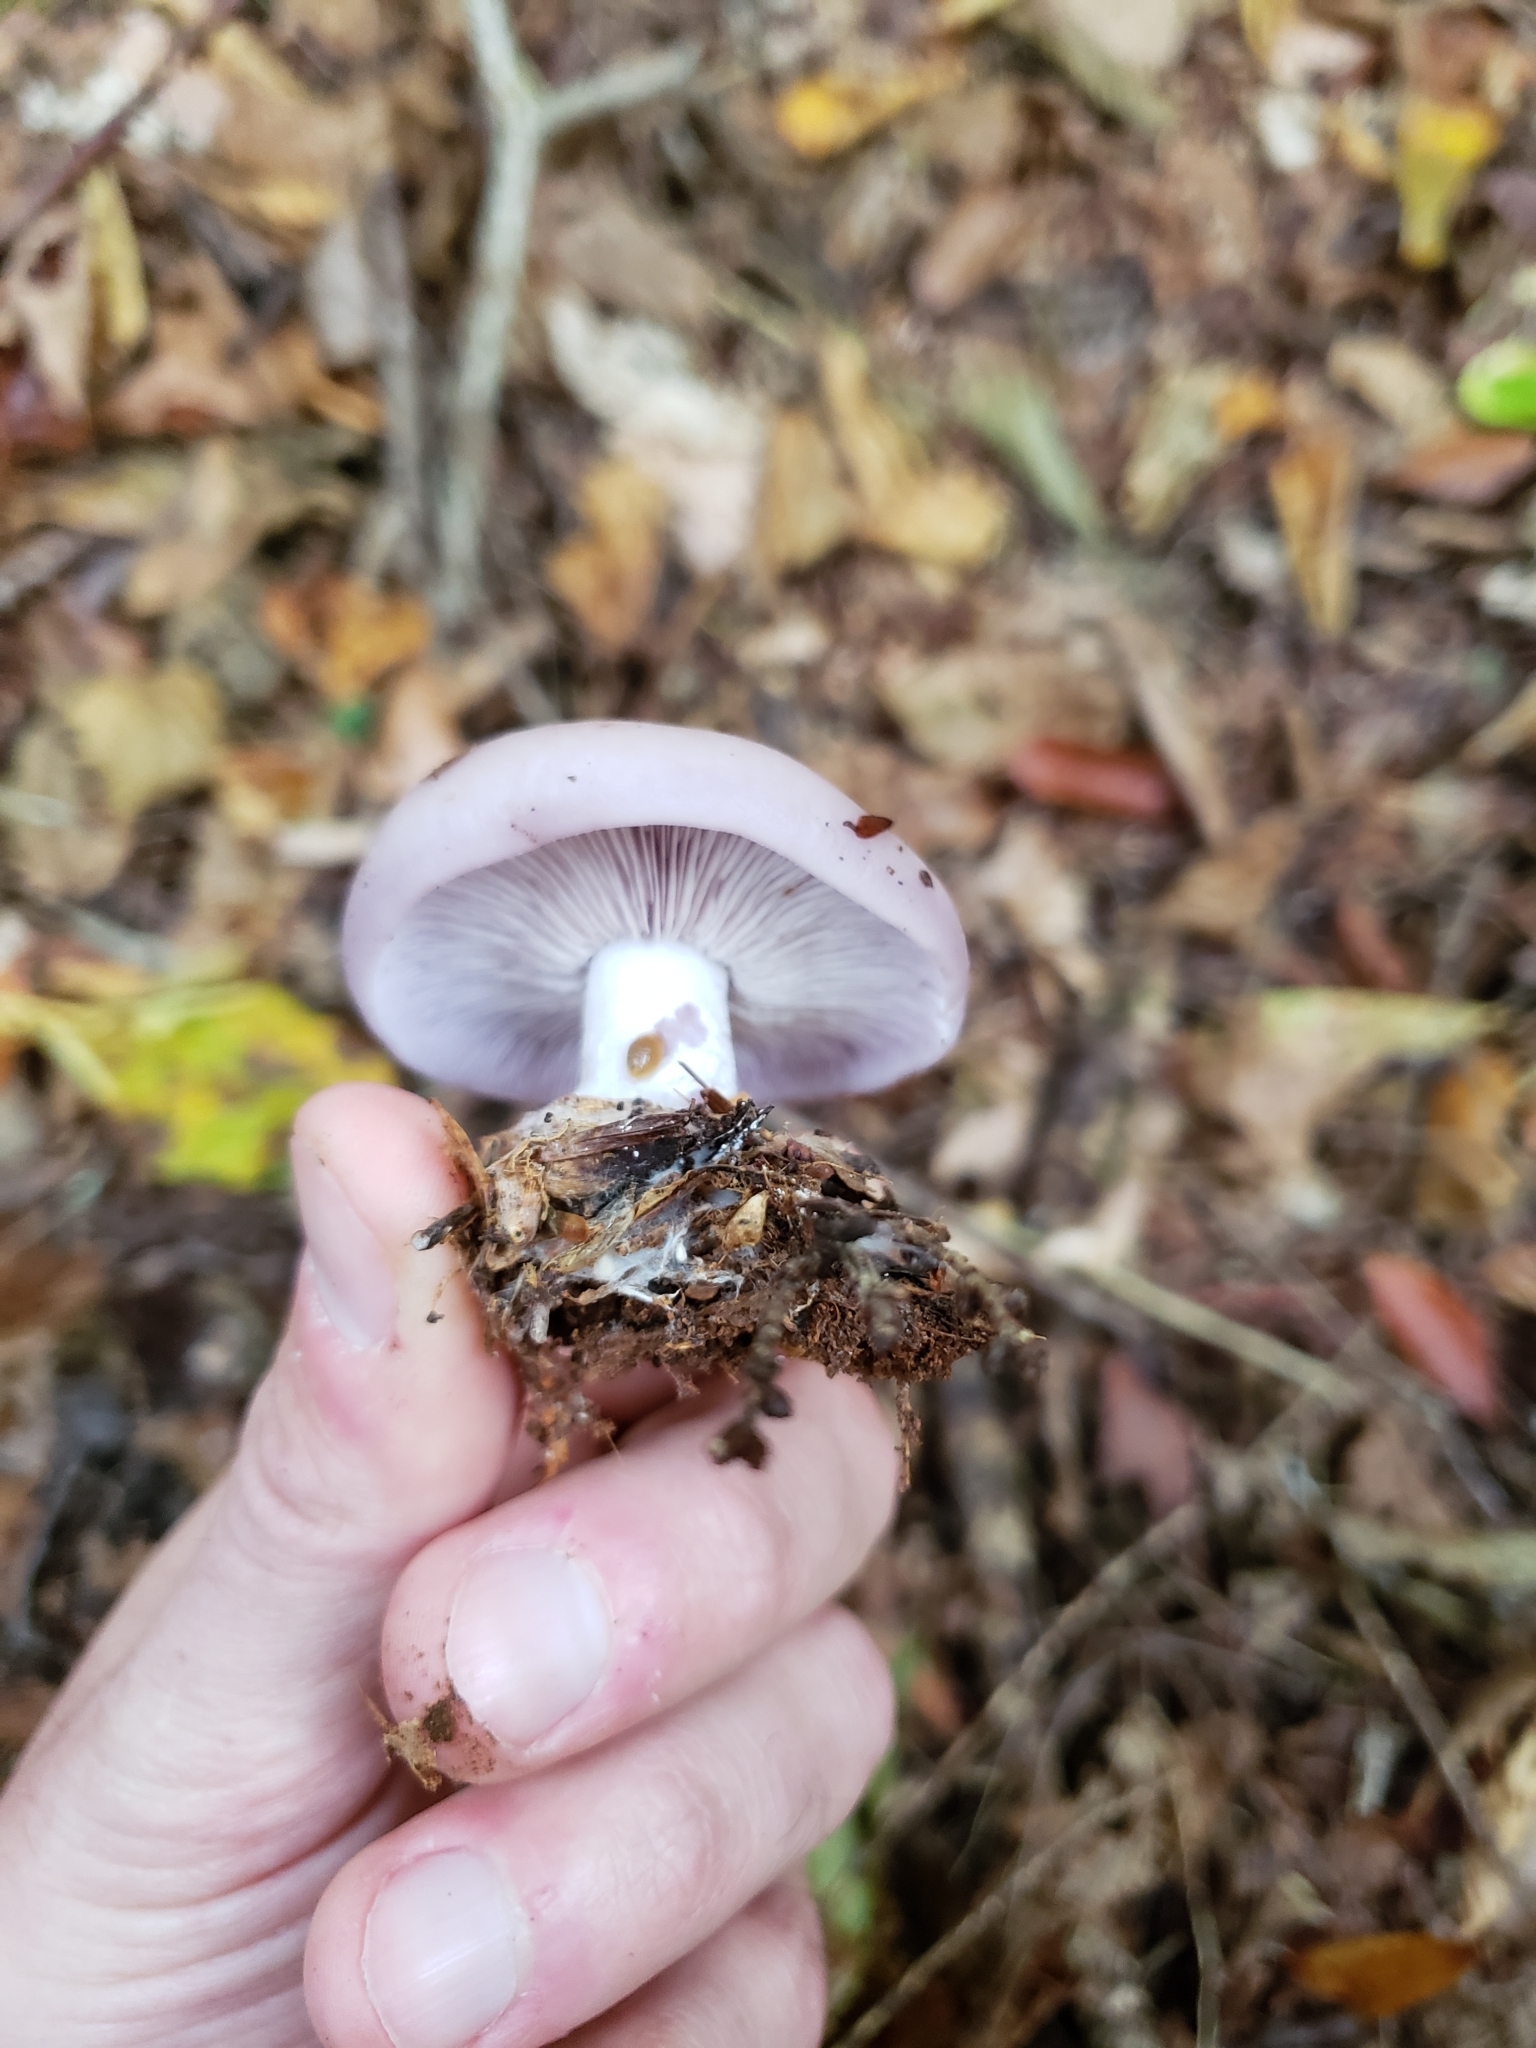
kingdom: Fungi
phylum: Basidiomycota
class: Agaricomycetes
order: Agaricales
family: Tricholomataceae
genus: Collybia
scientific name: Collybia
